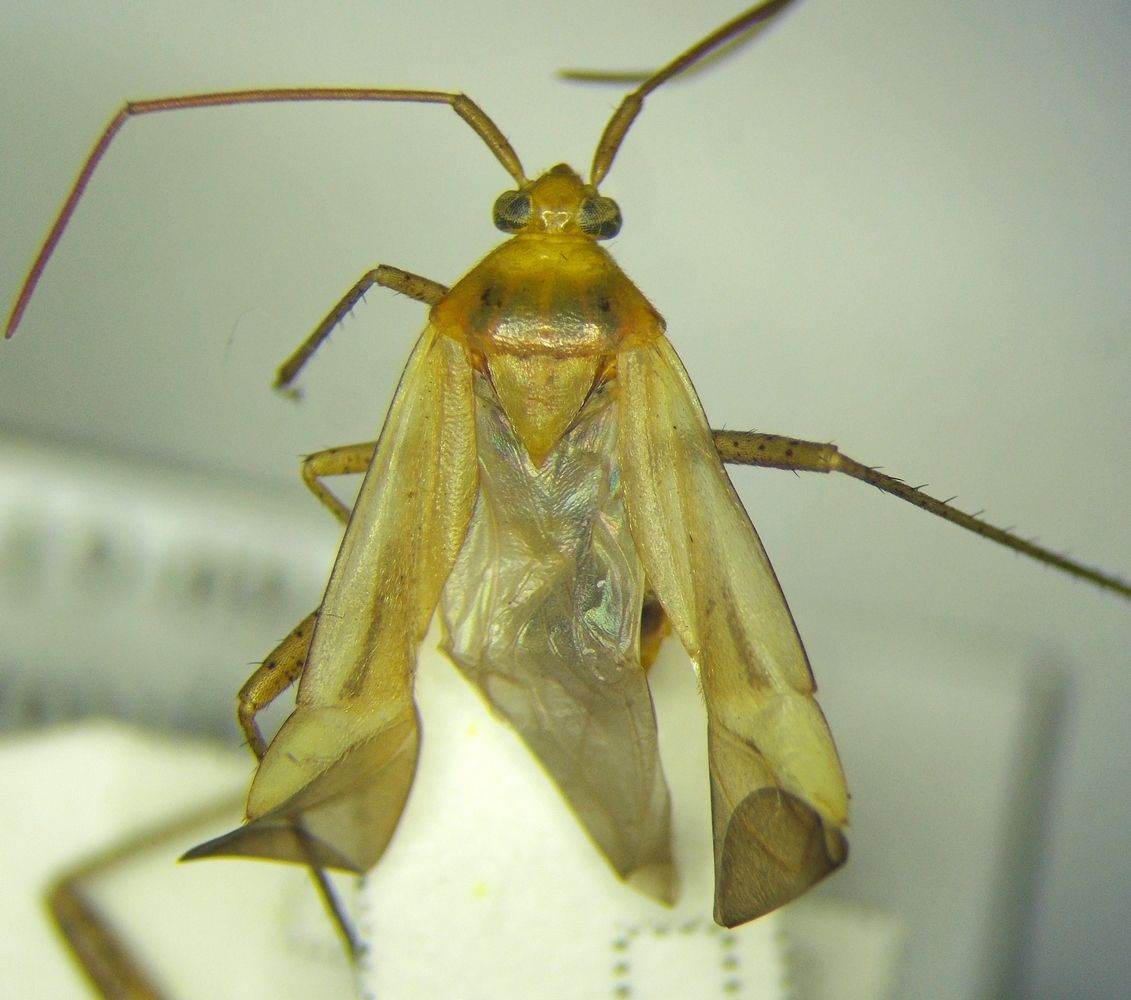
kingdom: Animalia
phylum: Arthropoda
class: Insecta
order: Hemiptera
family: Miridae
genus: Adelphocoris
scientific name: Adelphocoris lineolatus
